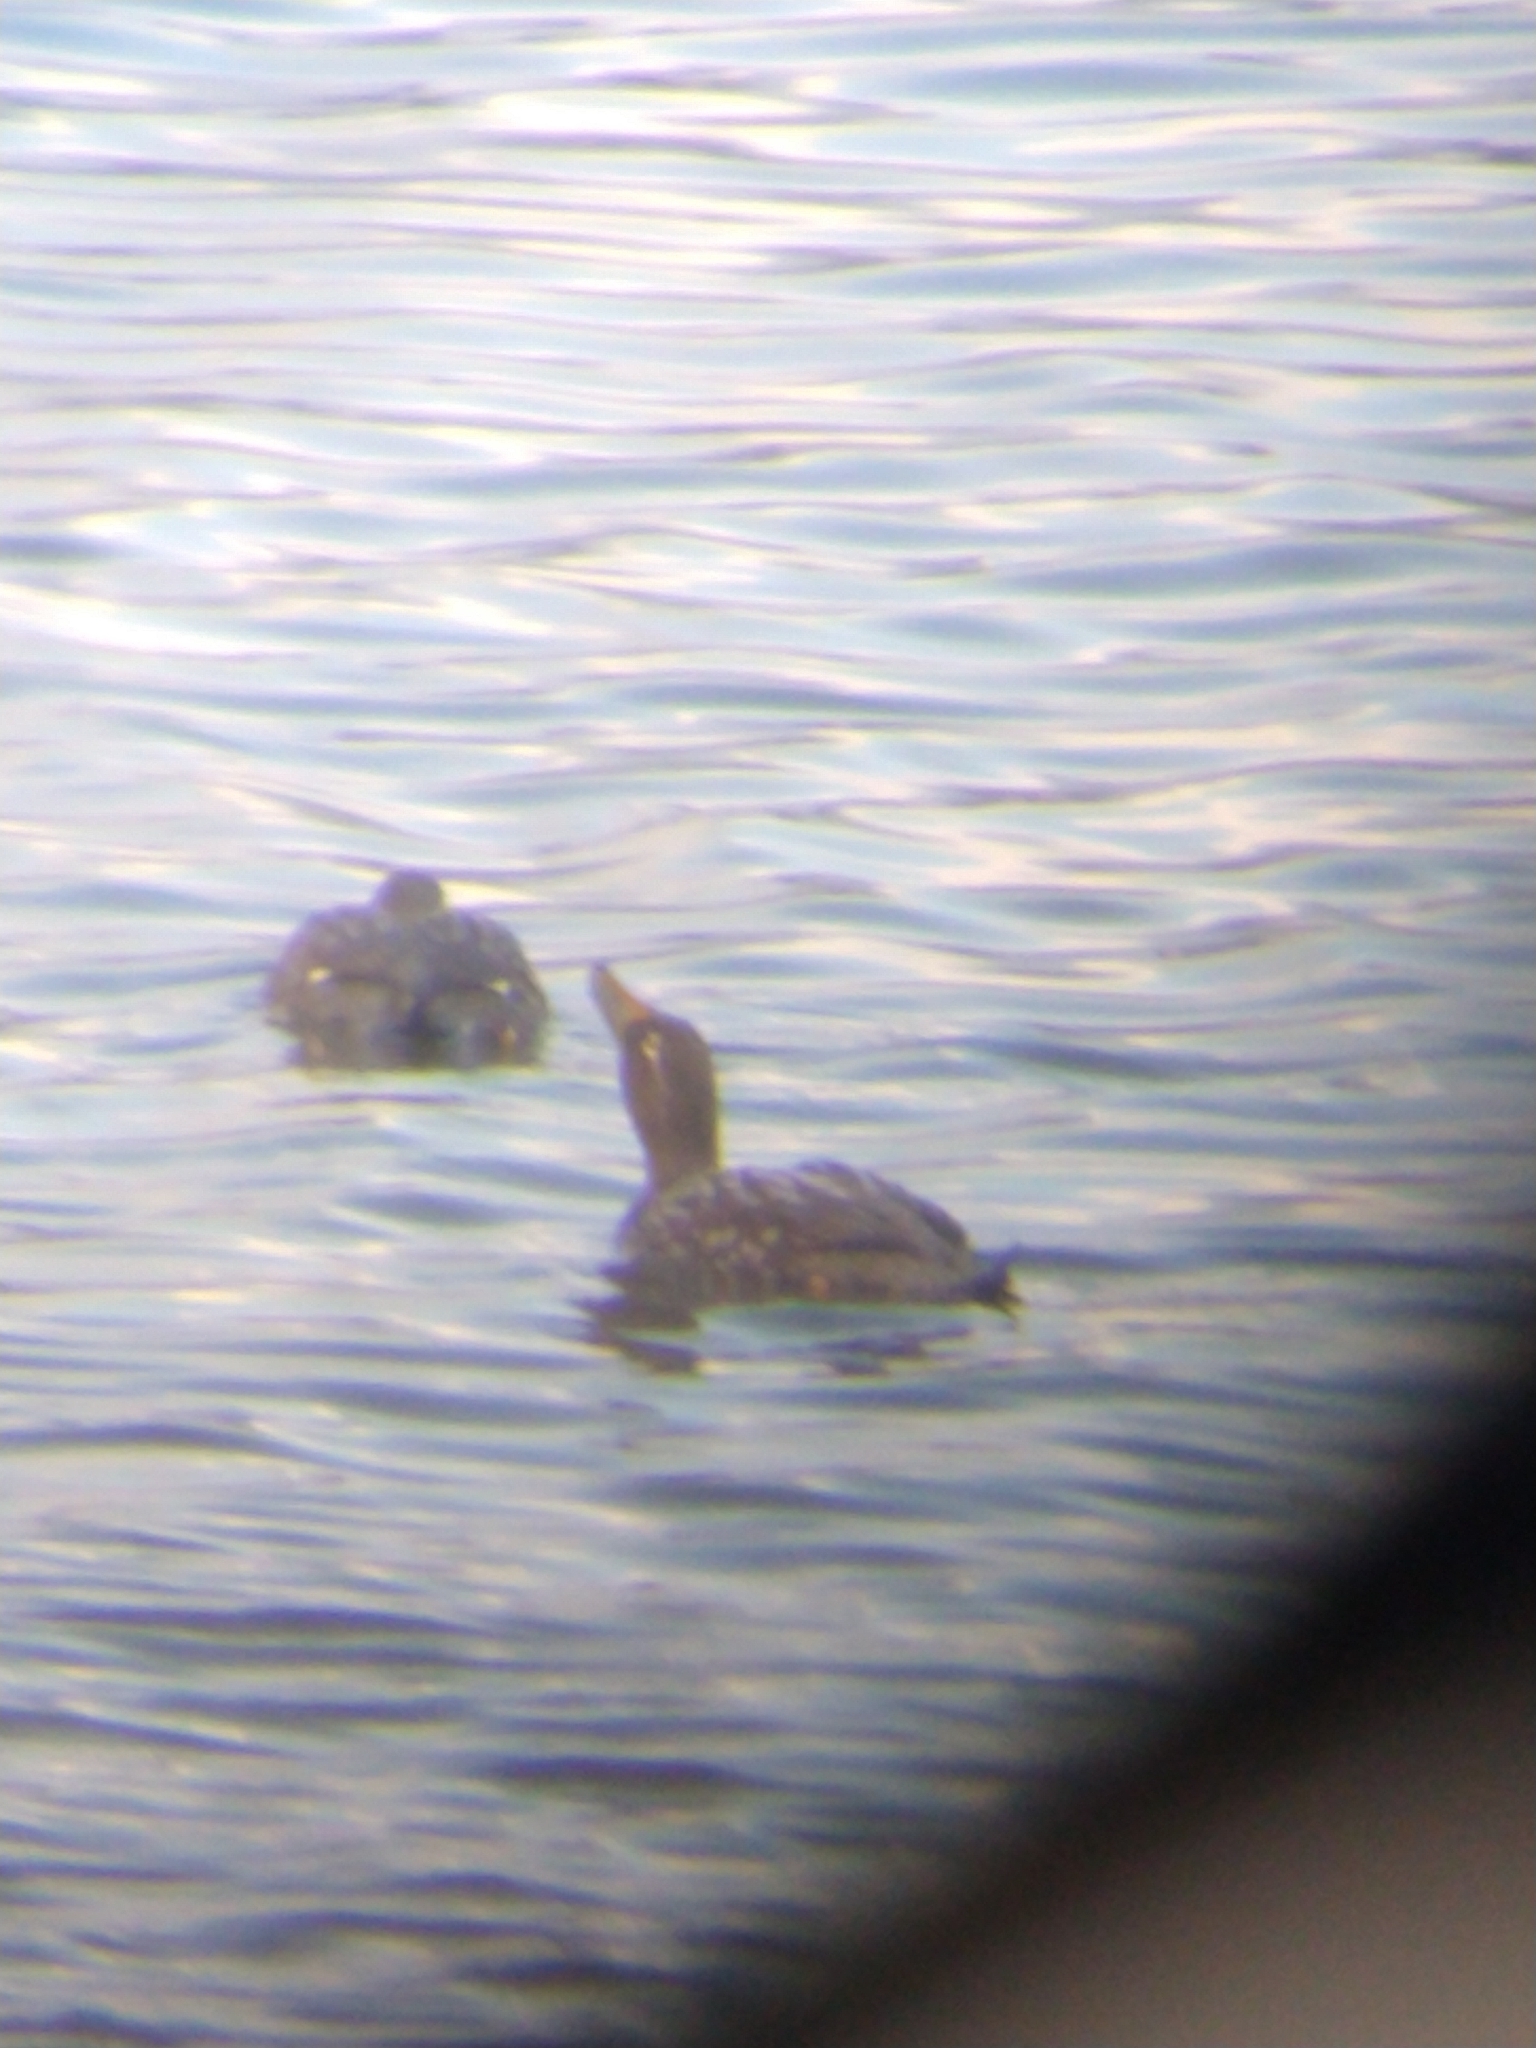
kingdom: Animalia
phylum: Chordata
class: Aves
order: Anseriformes
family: Anatidae
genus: Tachyeres
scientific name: Tachyeres patachonicus
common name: Flying steamer duck
